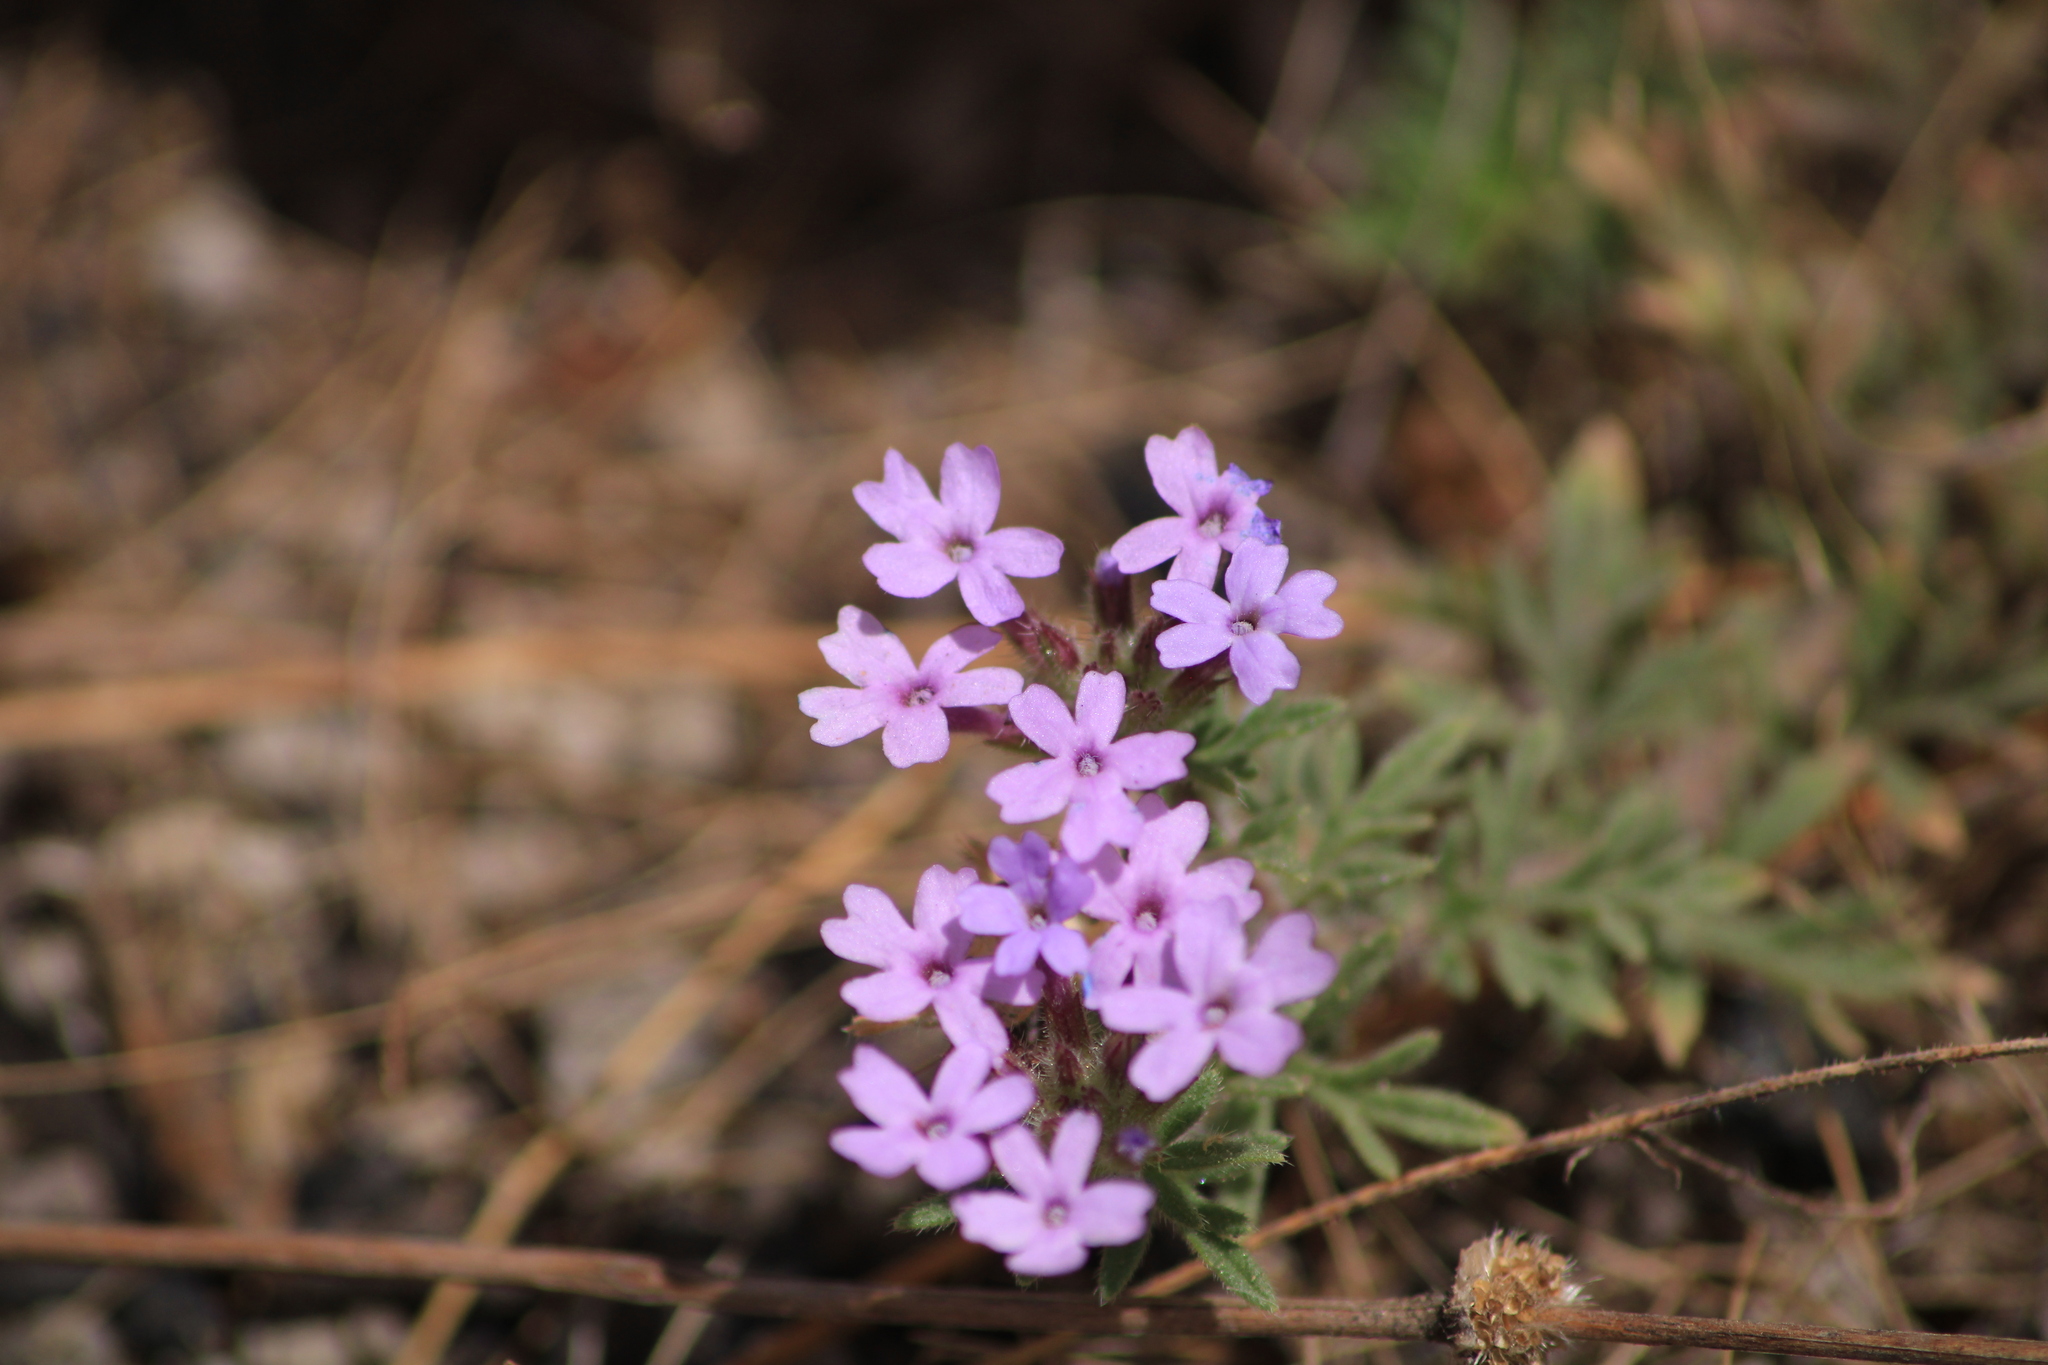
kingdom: Plantae
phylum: Tracheophyta
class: Magnoliopsida
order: Lamiales
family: Verbenaceae
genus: Verbena
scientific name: Verbena bipinnatifida
